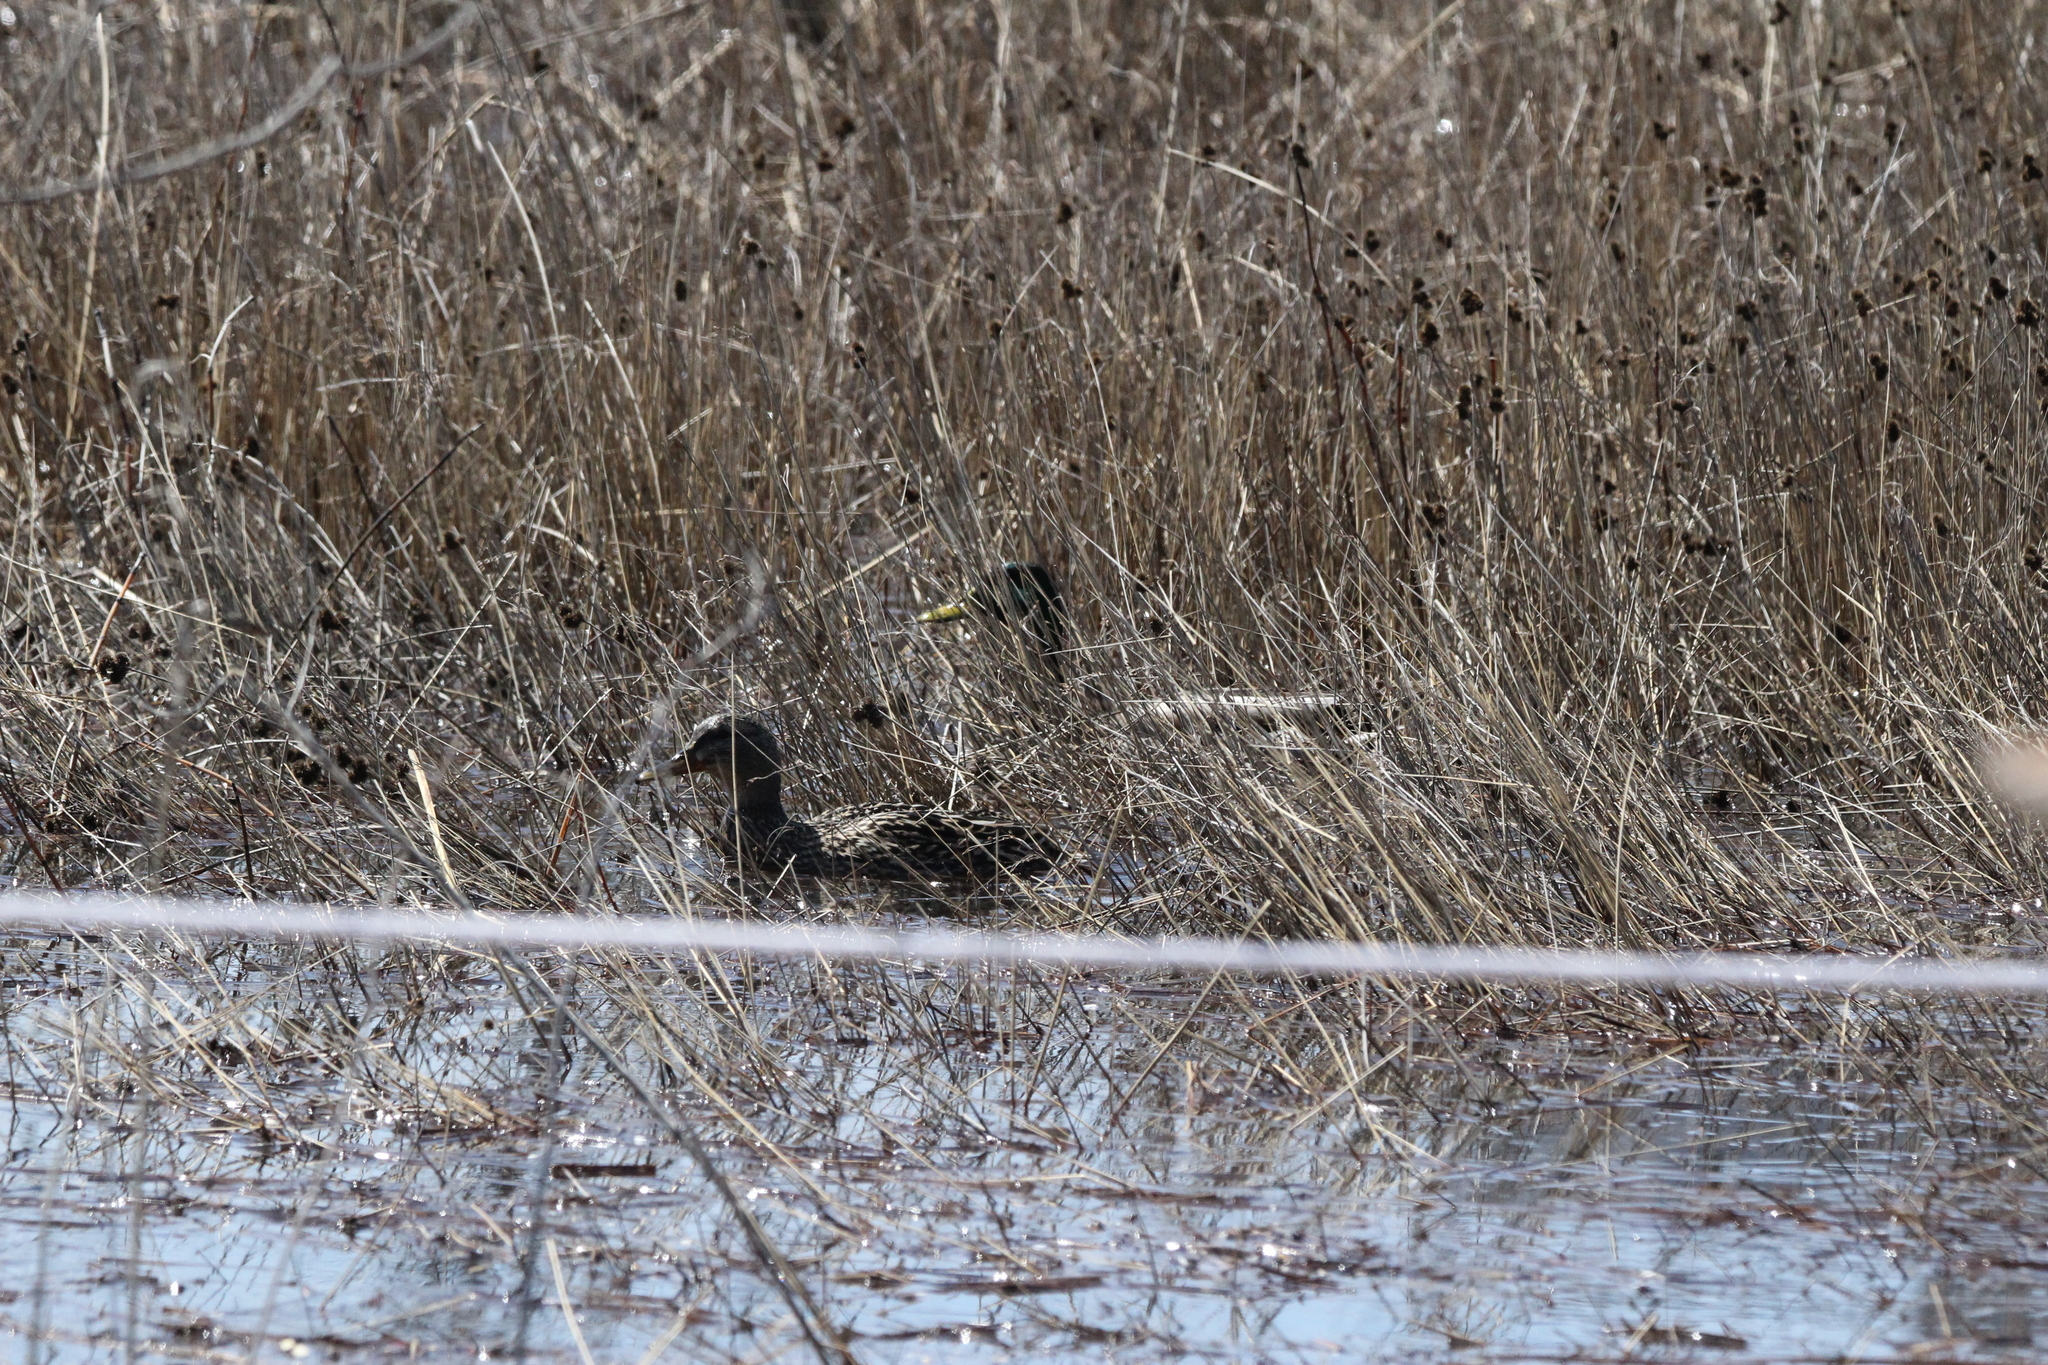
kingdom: Animalia
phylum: Chordata
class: Aves
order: Anseriformes
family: Anatidae
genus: Anas
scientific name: Anas platyrhynchos
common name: Mallard
